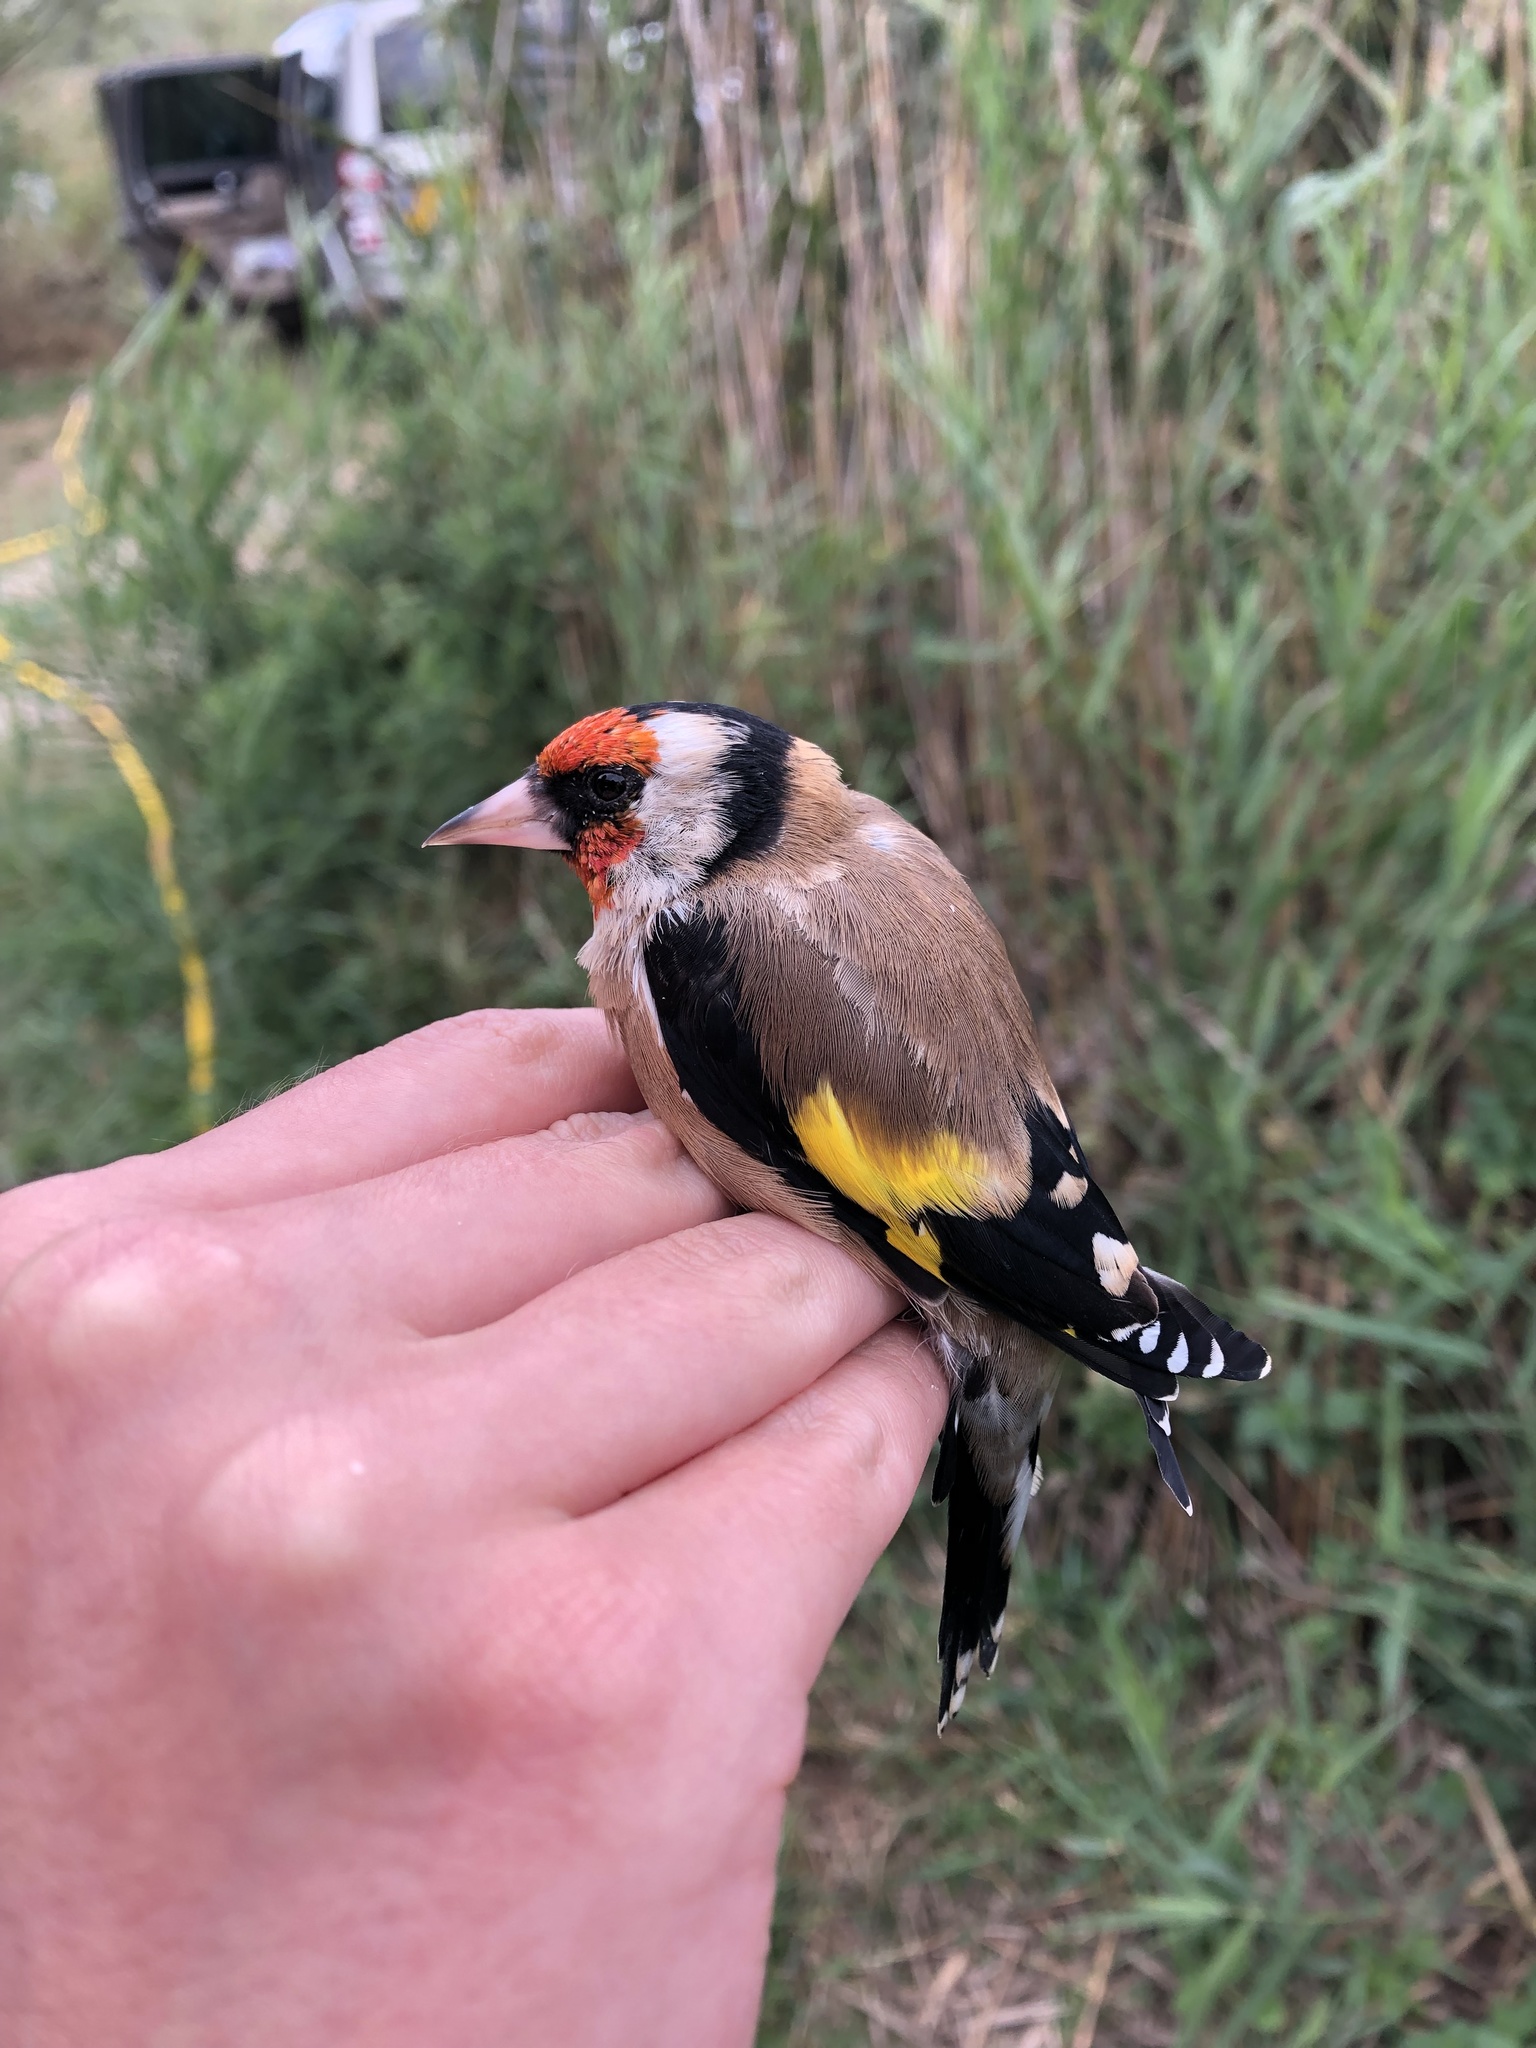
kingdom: Animalia
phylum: Chordata
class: Aves
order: Passeriformes
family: Fringillidae
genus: Carduelis
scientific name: Carduelis carduelis
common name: European goldfinch
